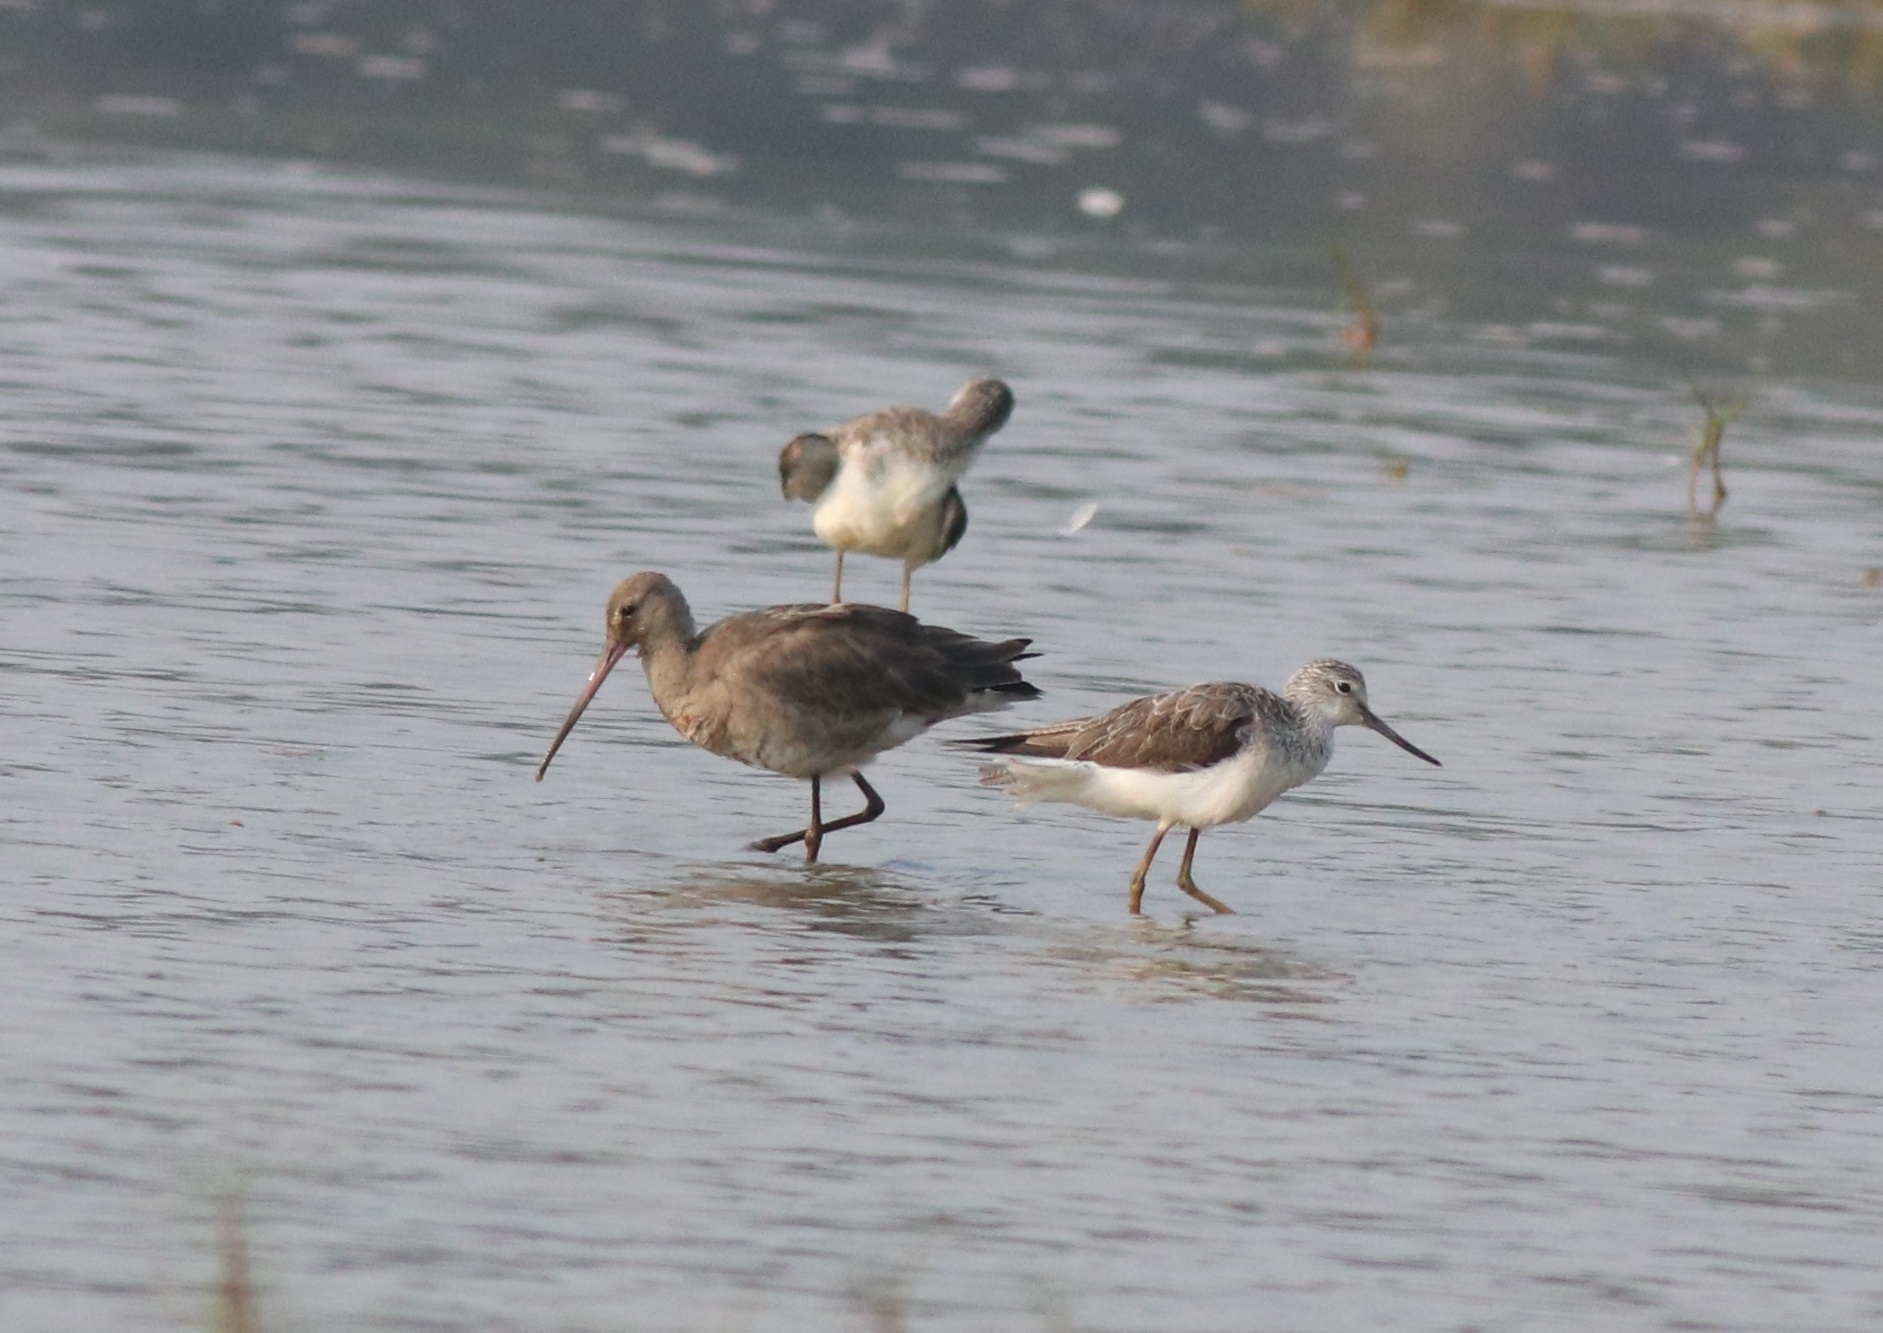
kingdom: Animalia
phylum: Chordata
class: Aves
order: Charadriiformes
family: Scolopacidae
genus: Limosa
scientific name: Limosa limosa
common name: Black-tailed godwit
